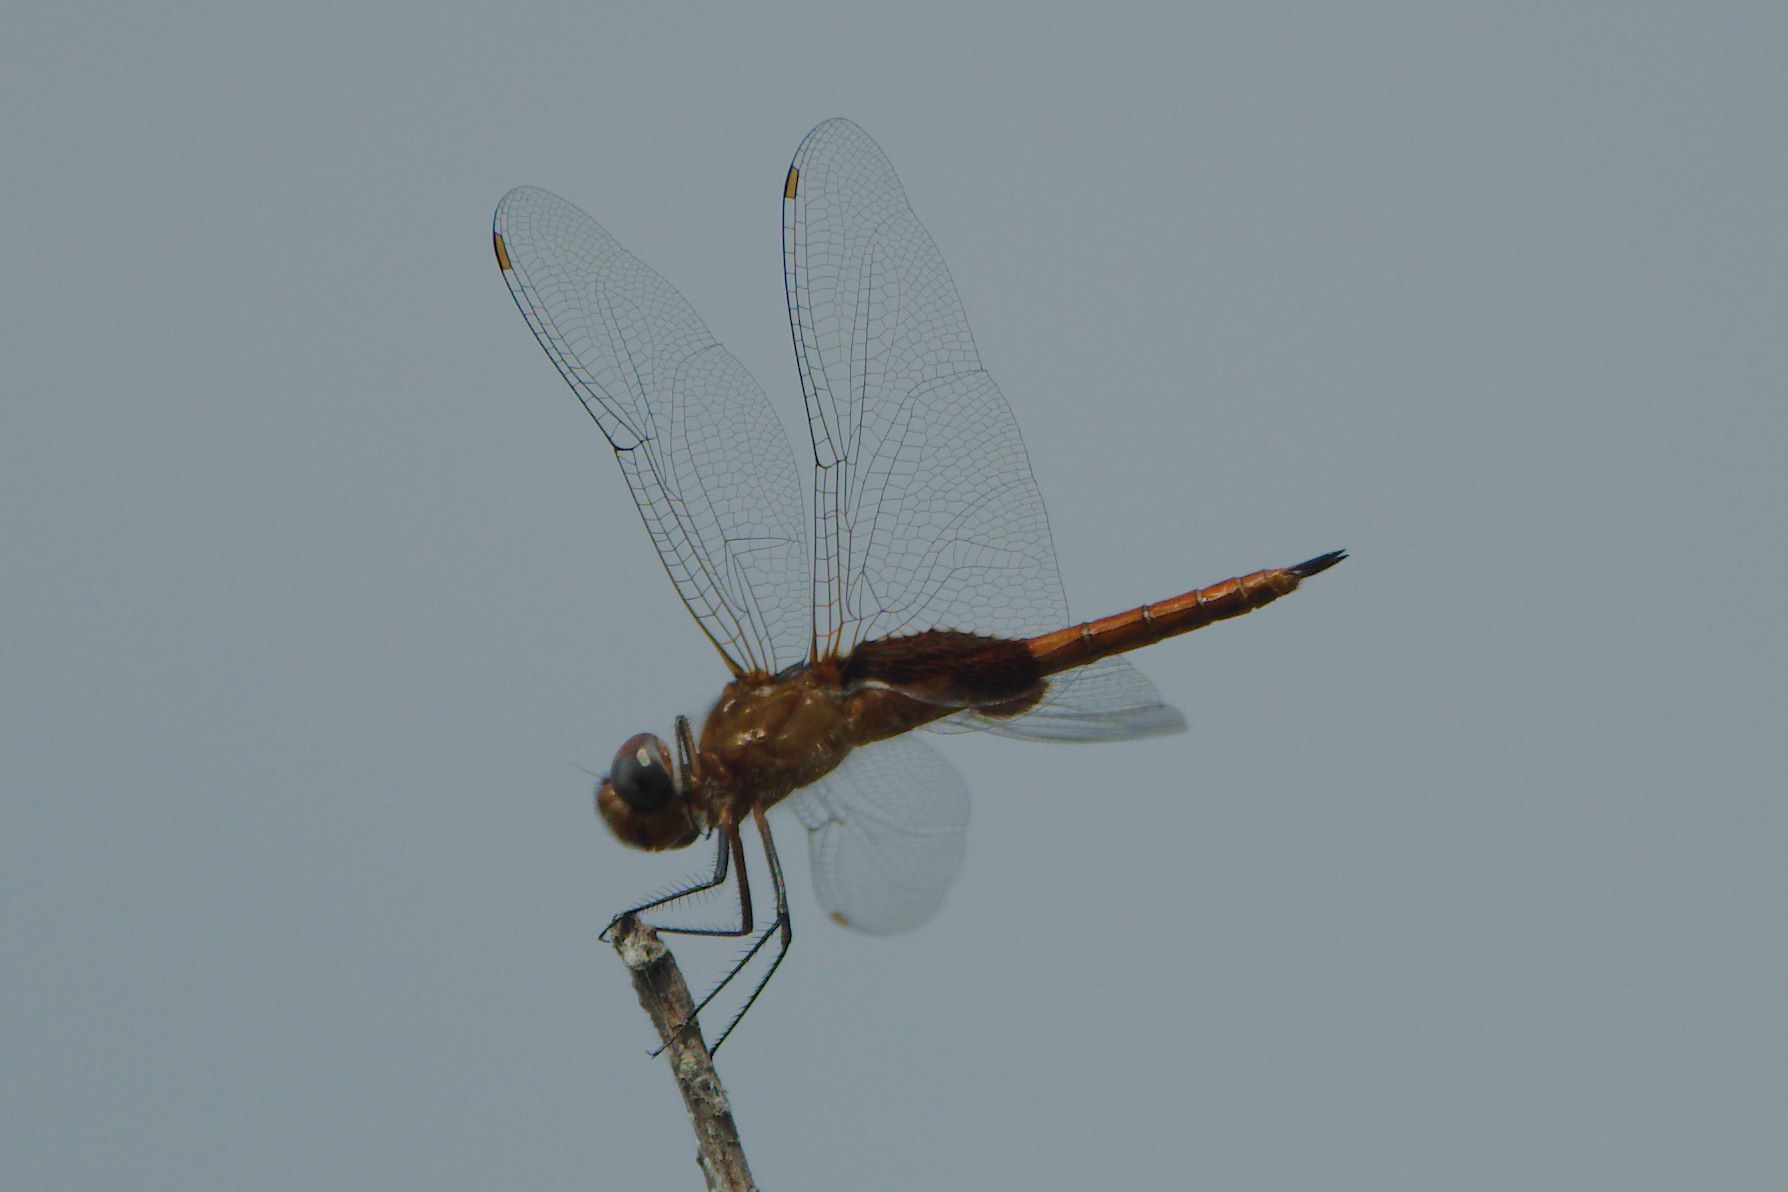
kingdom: Animalia
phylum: Arthropoda
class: Insecta
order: Odonata
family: Libellulidae
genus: Tramea
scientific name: Tramea abdominalis
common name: Vermilion saddlebags
